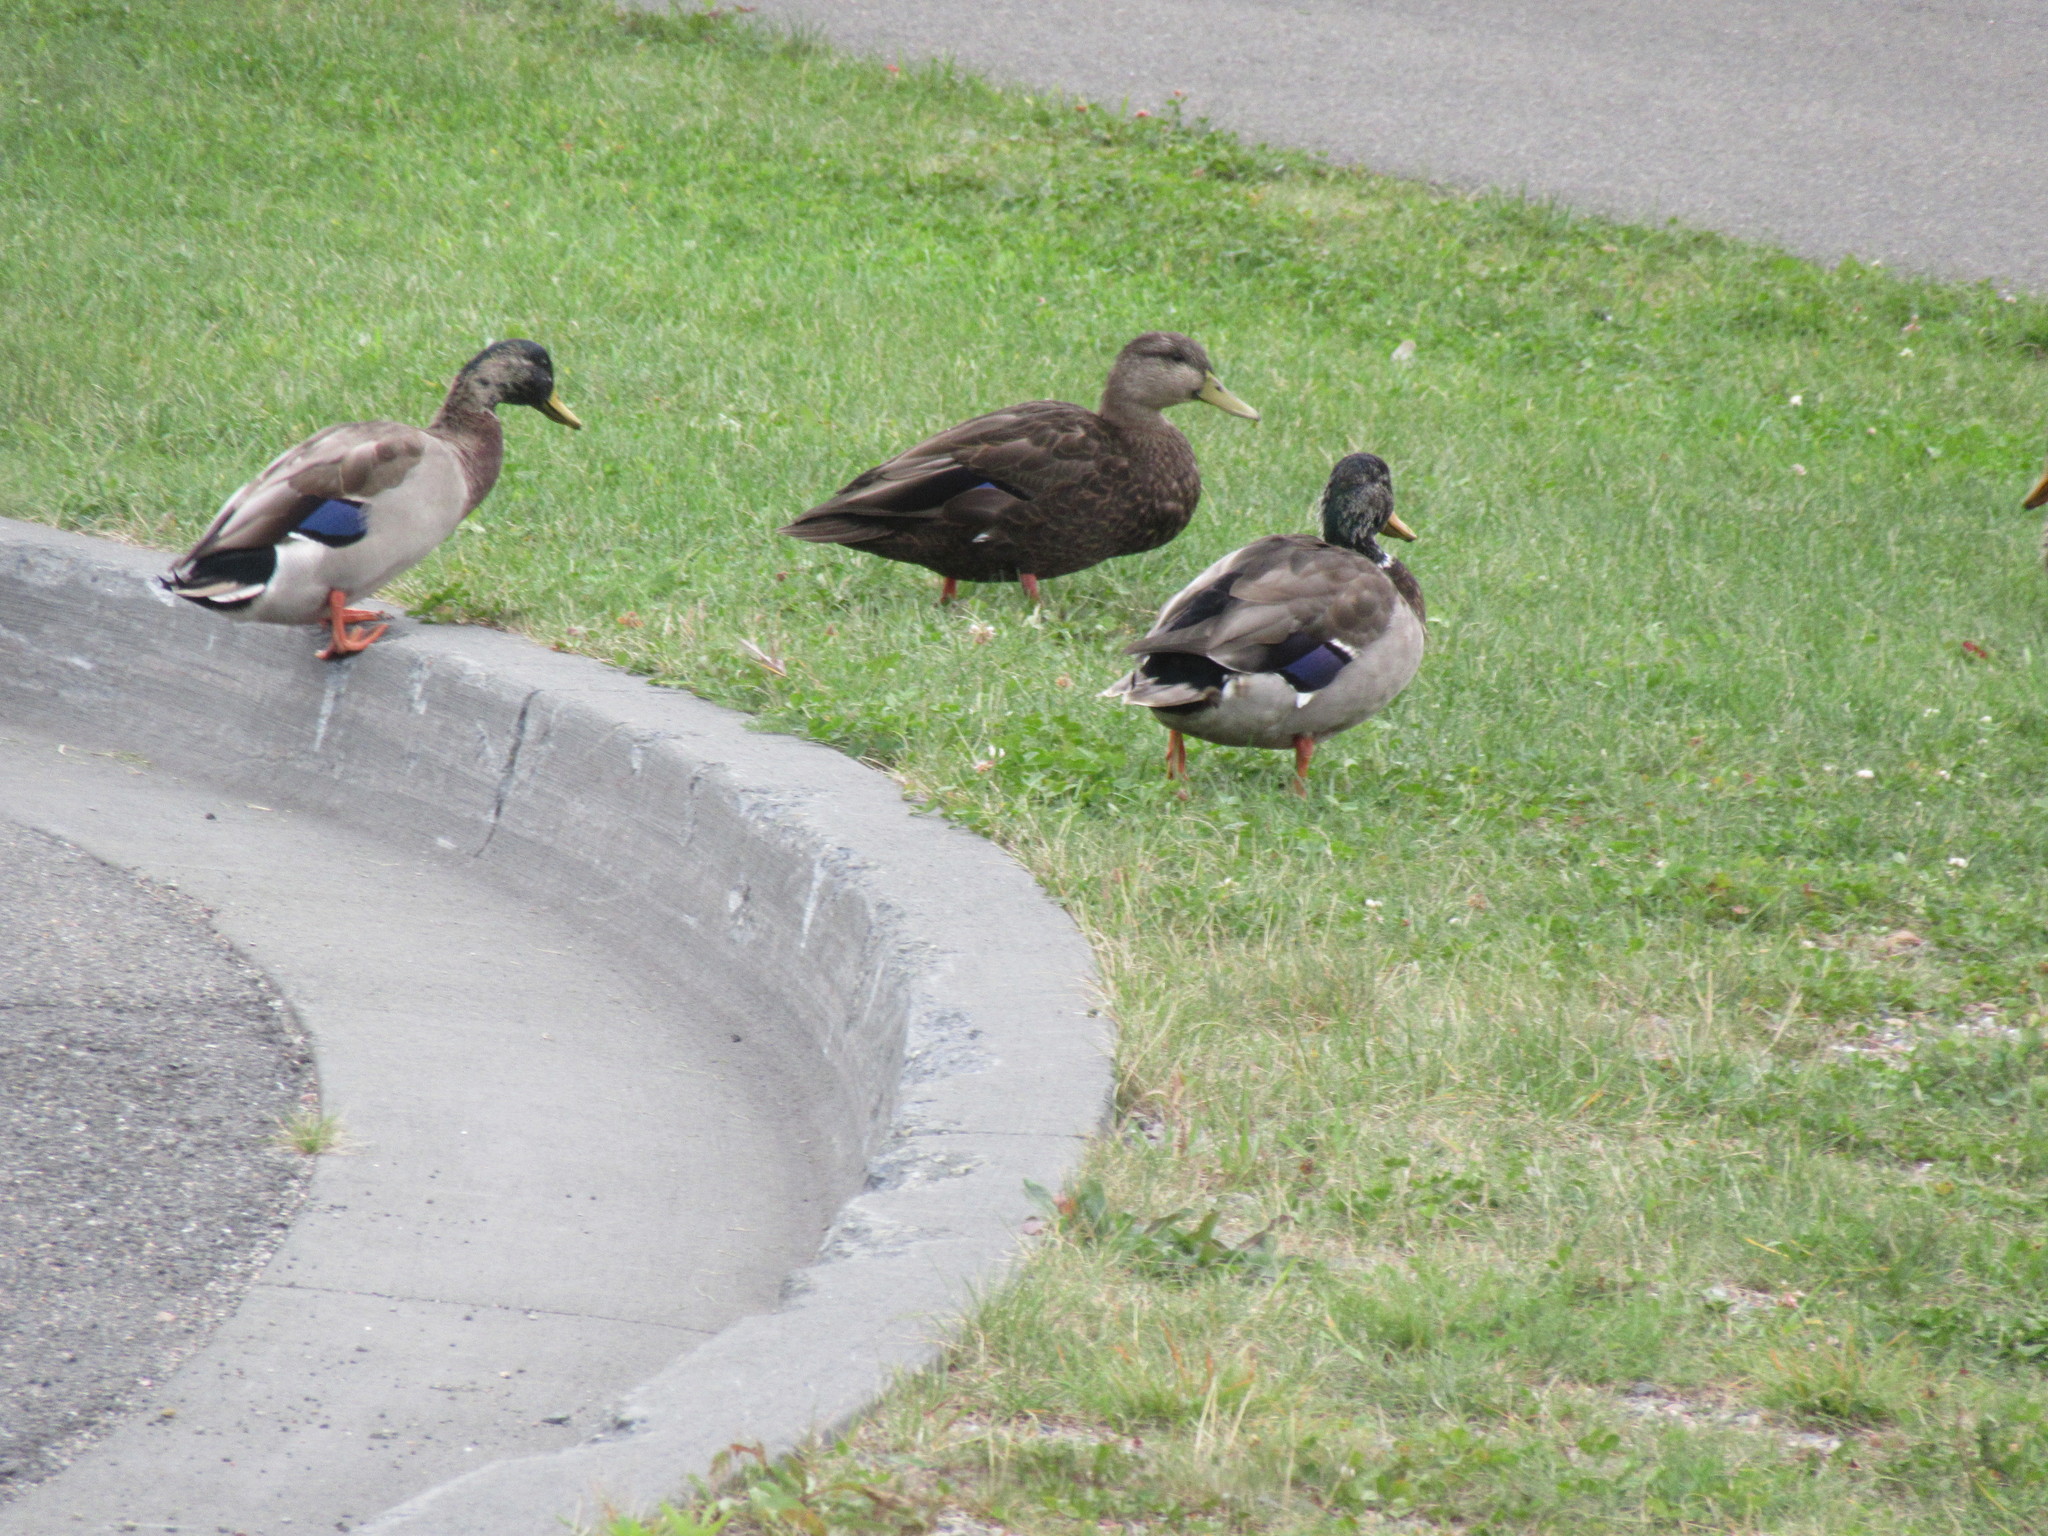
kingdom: Animalia
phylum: Chordata
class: Aves
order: Anseriformes
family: Anatidae
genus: Anas
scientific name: Anas platyrhynchos
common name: Mallard
